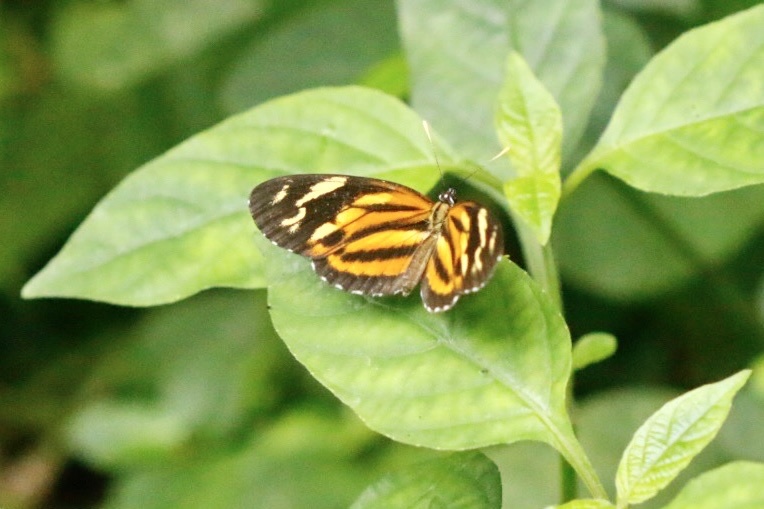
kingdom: Animalia
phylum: Arthropoda
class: Insecta
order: Lepidoptera
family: Nymphalidae
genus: Eresia
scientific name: Eresia eunice
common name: Tiger crescent
